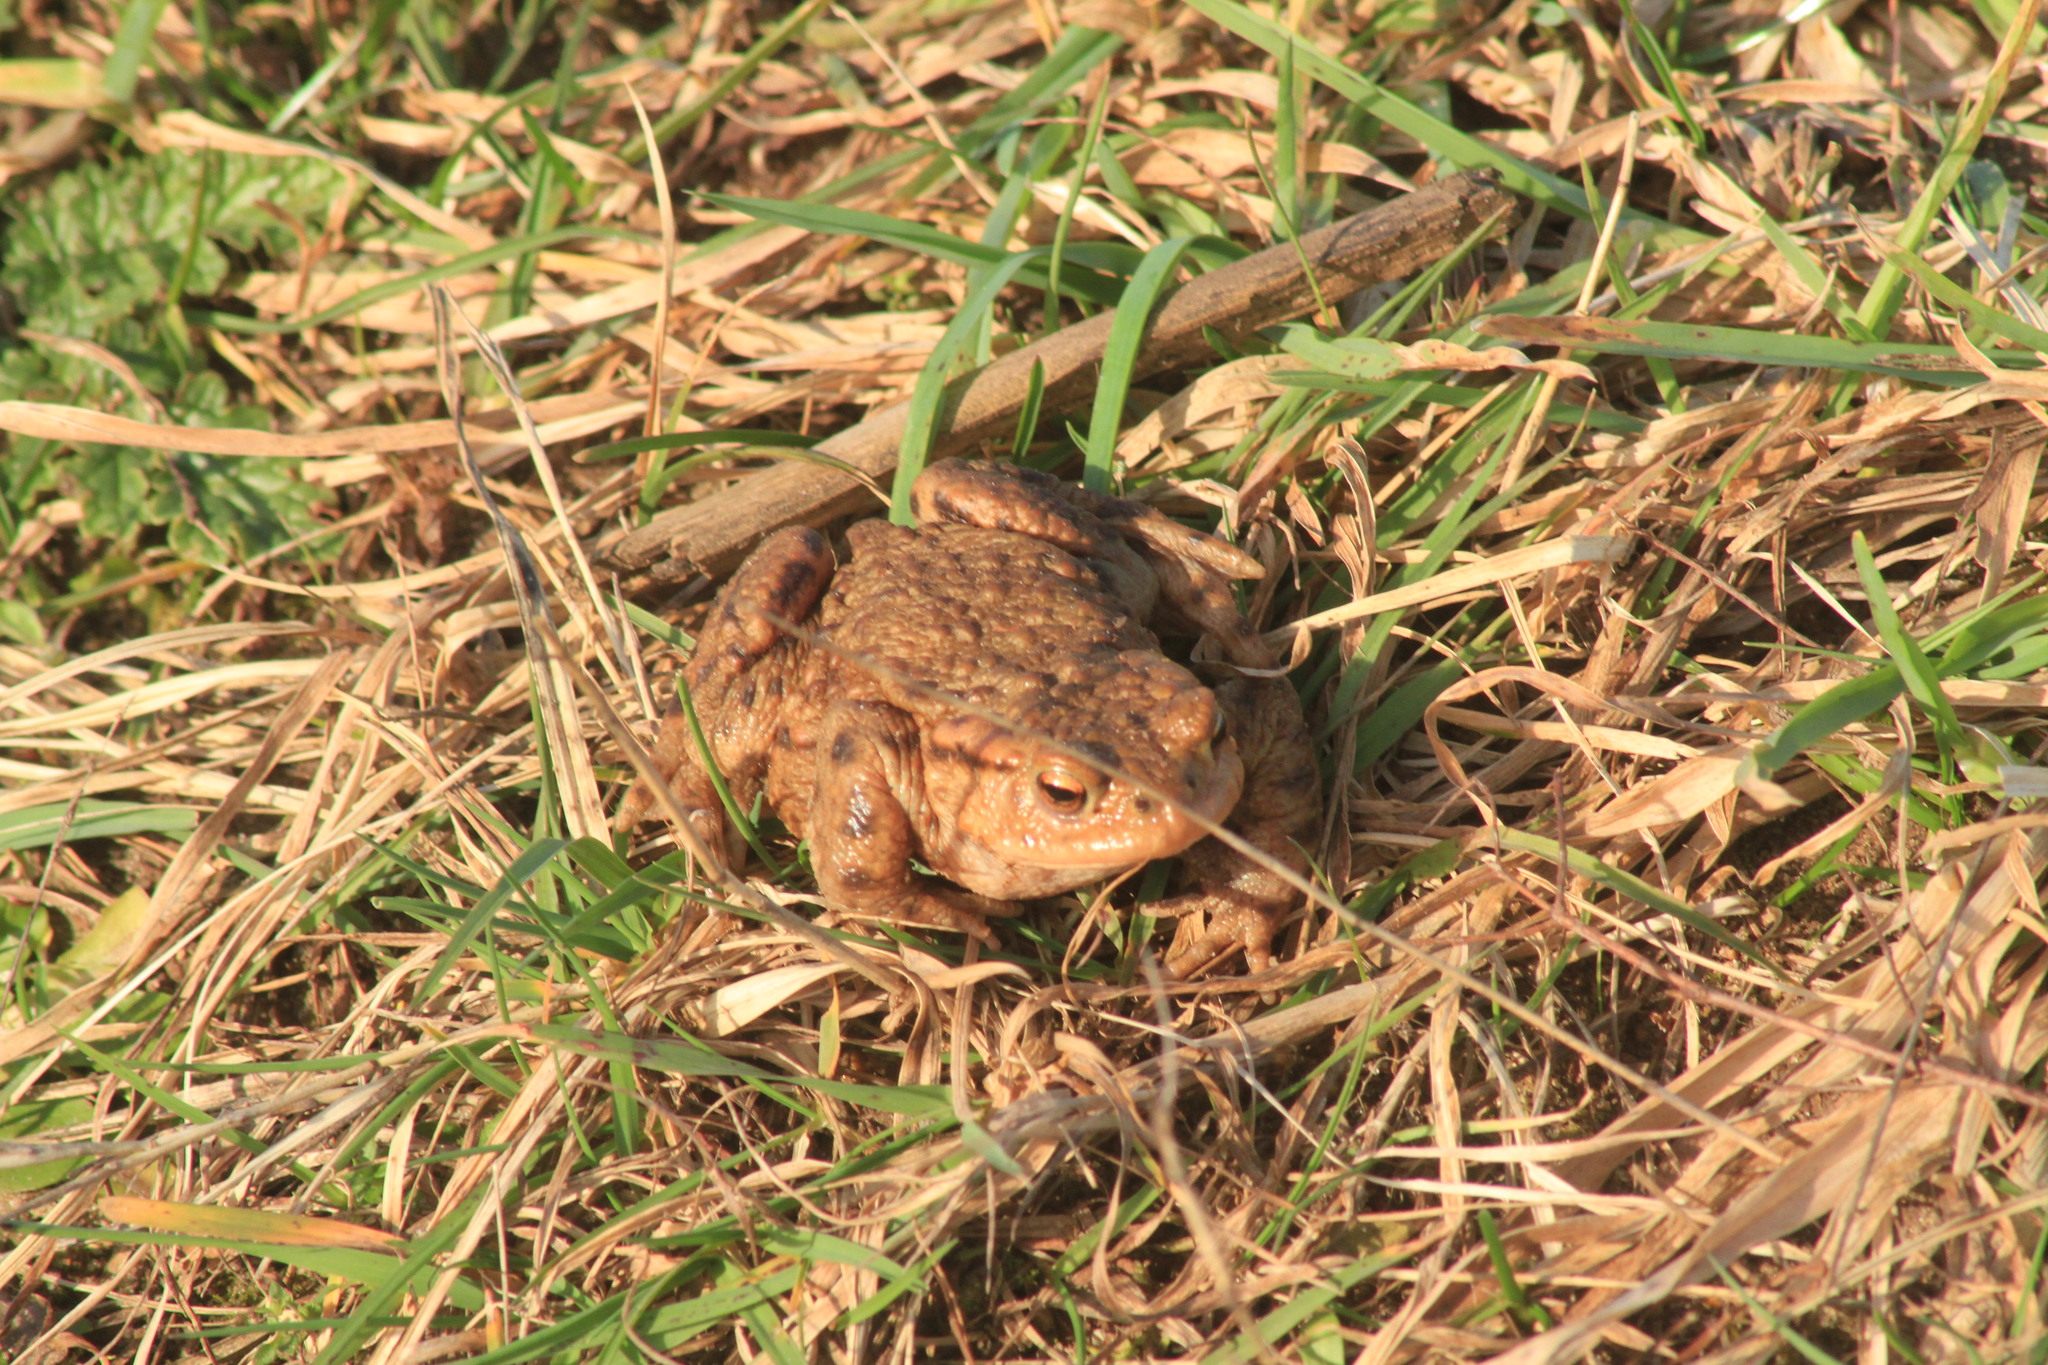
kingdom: Animalia
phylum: Chordata
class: Amphibia
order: Anura
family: Bufonidae
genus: Bufo
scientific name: Bufo bufo
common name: Common toad
